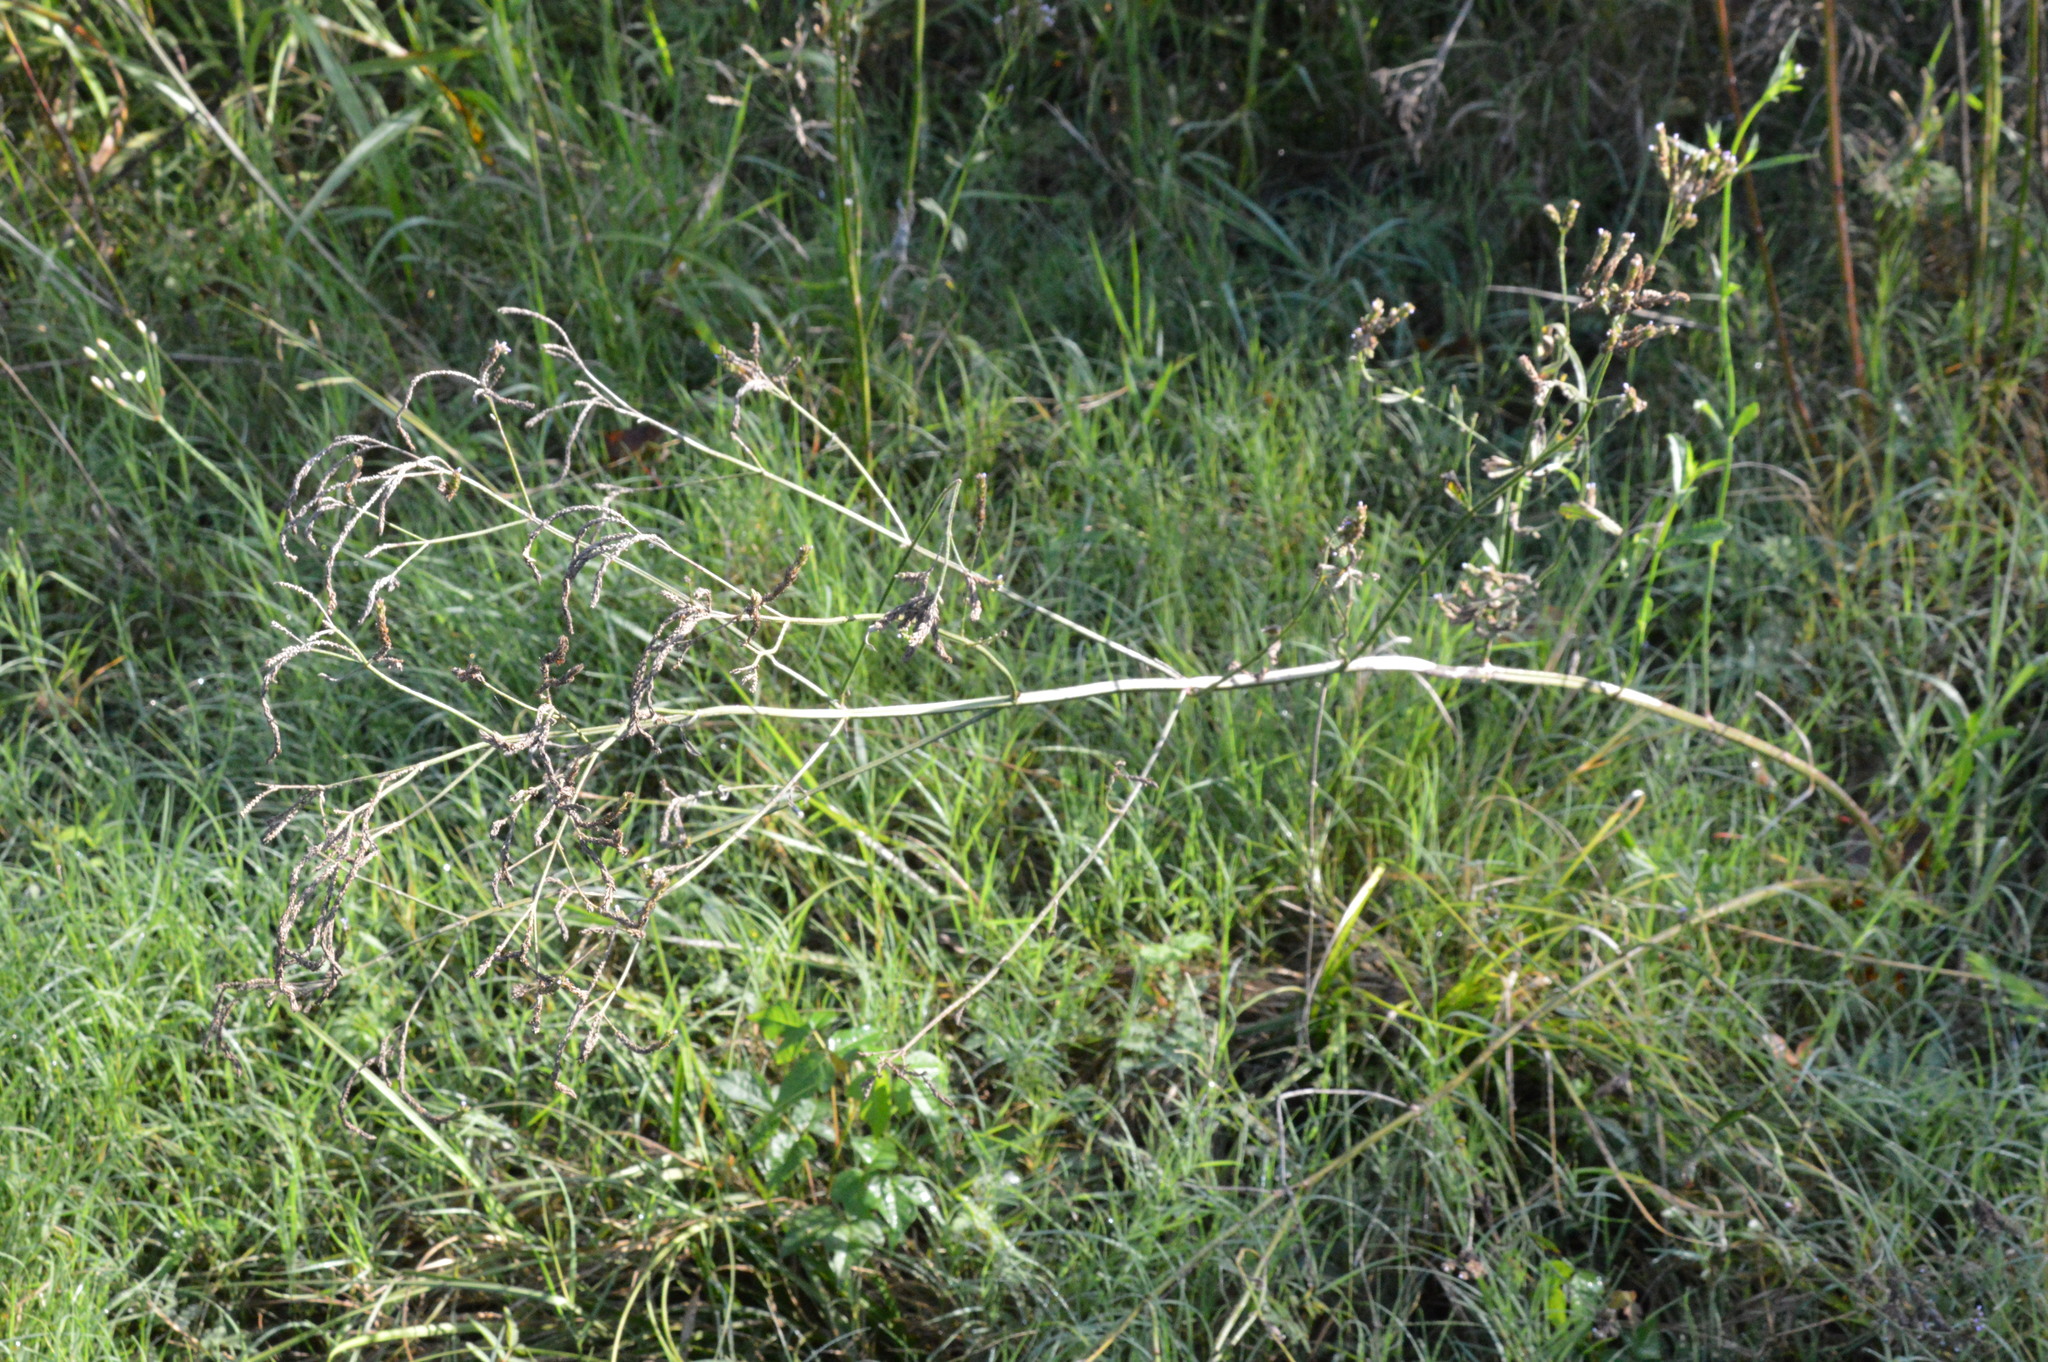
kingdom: Plantae
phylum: Tracheophyta
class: Magnoliopsida
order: Lamiales
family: Verbenaceae
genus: Verbena
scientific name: Verbena brasiliensis
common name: Brazilian vervain
